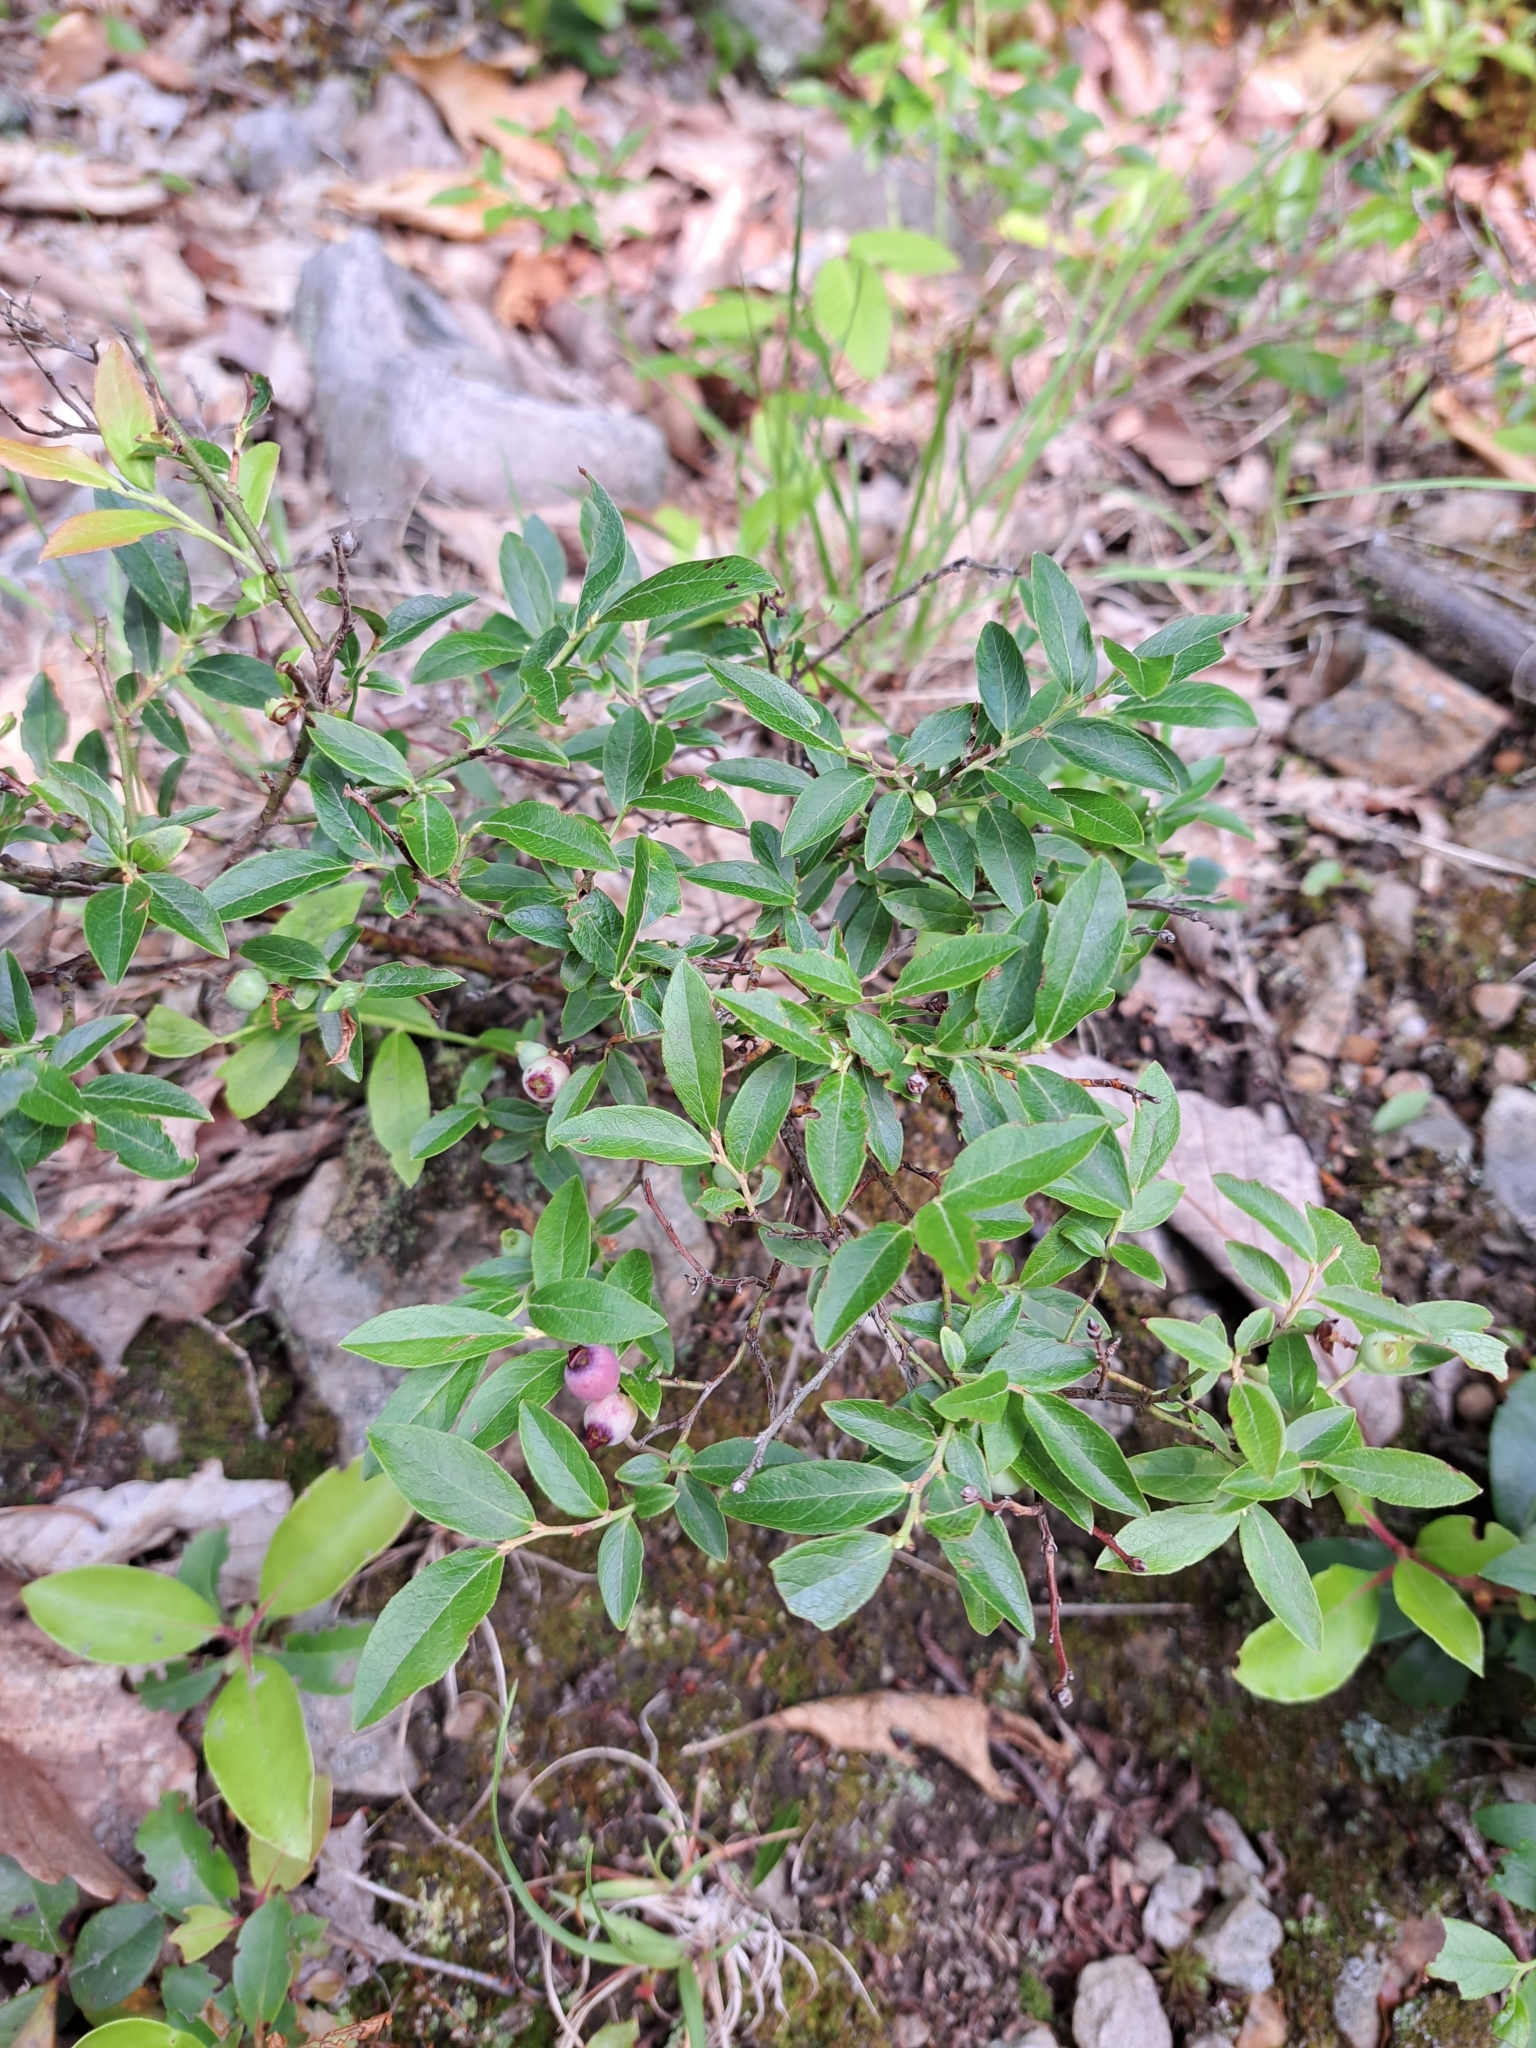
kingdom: Plantae
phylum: Tracheophyta
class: Magnoliopsida
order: Ericales
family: Ericaceae
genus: Vaccinium
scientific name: Vaccinium angustifolium
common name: Early lowbush blueberry
